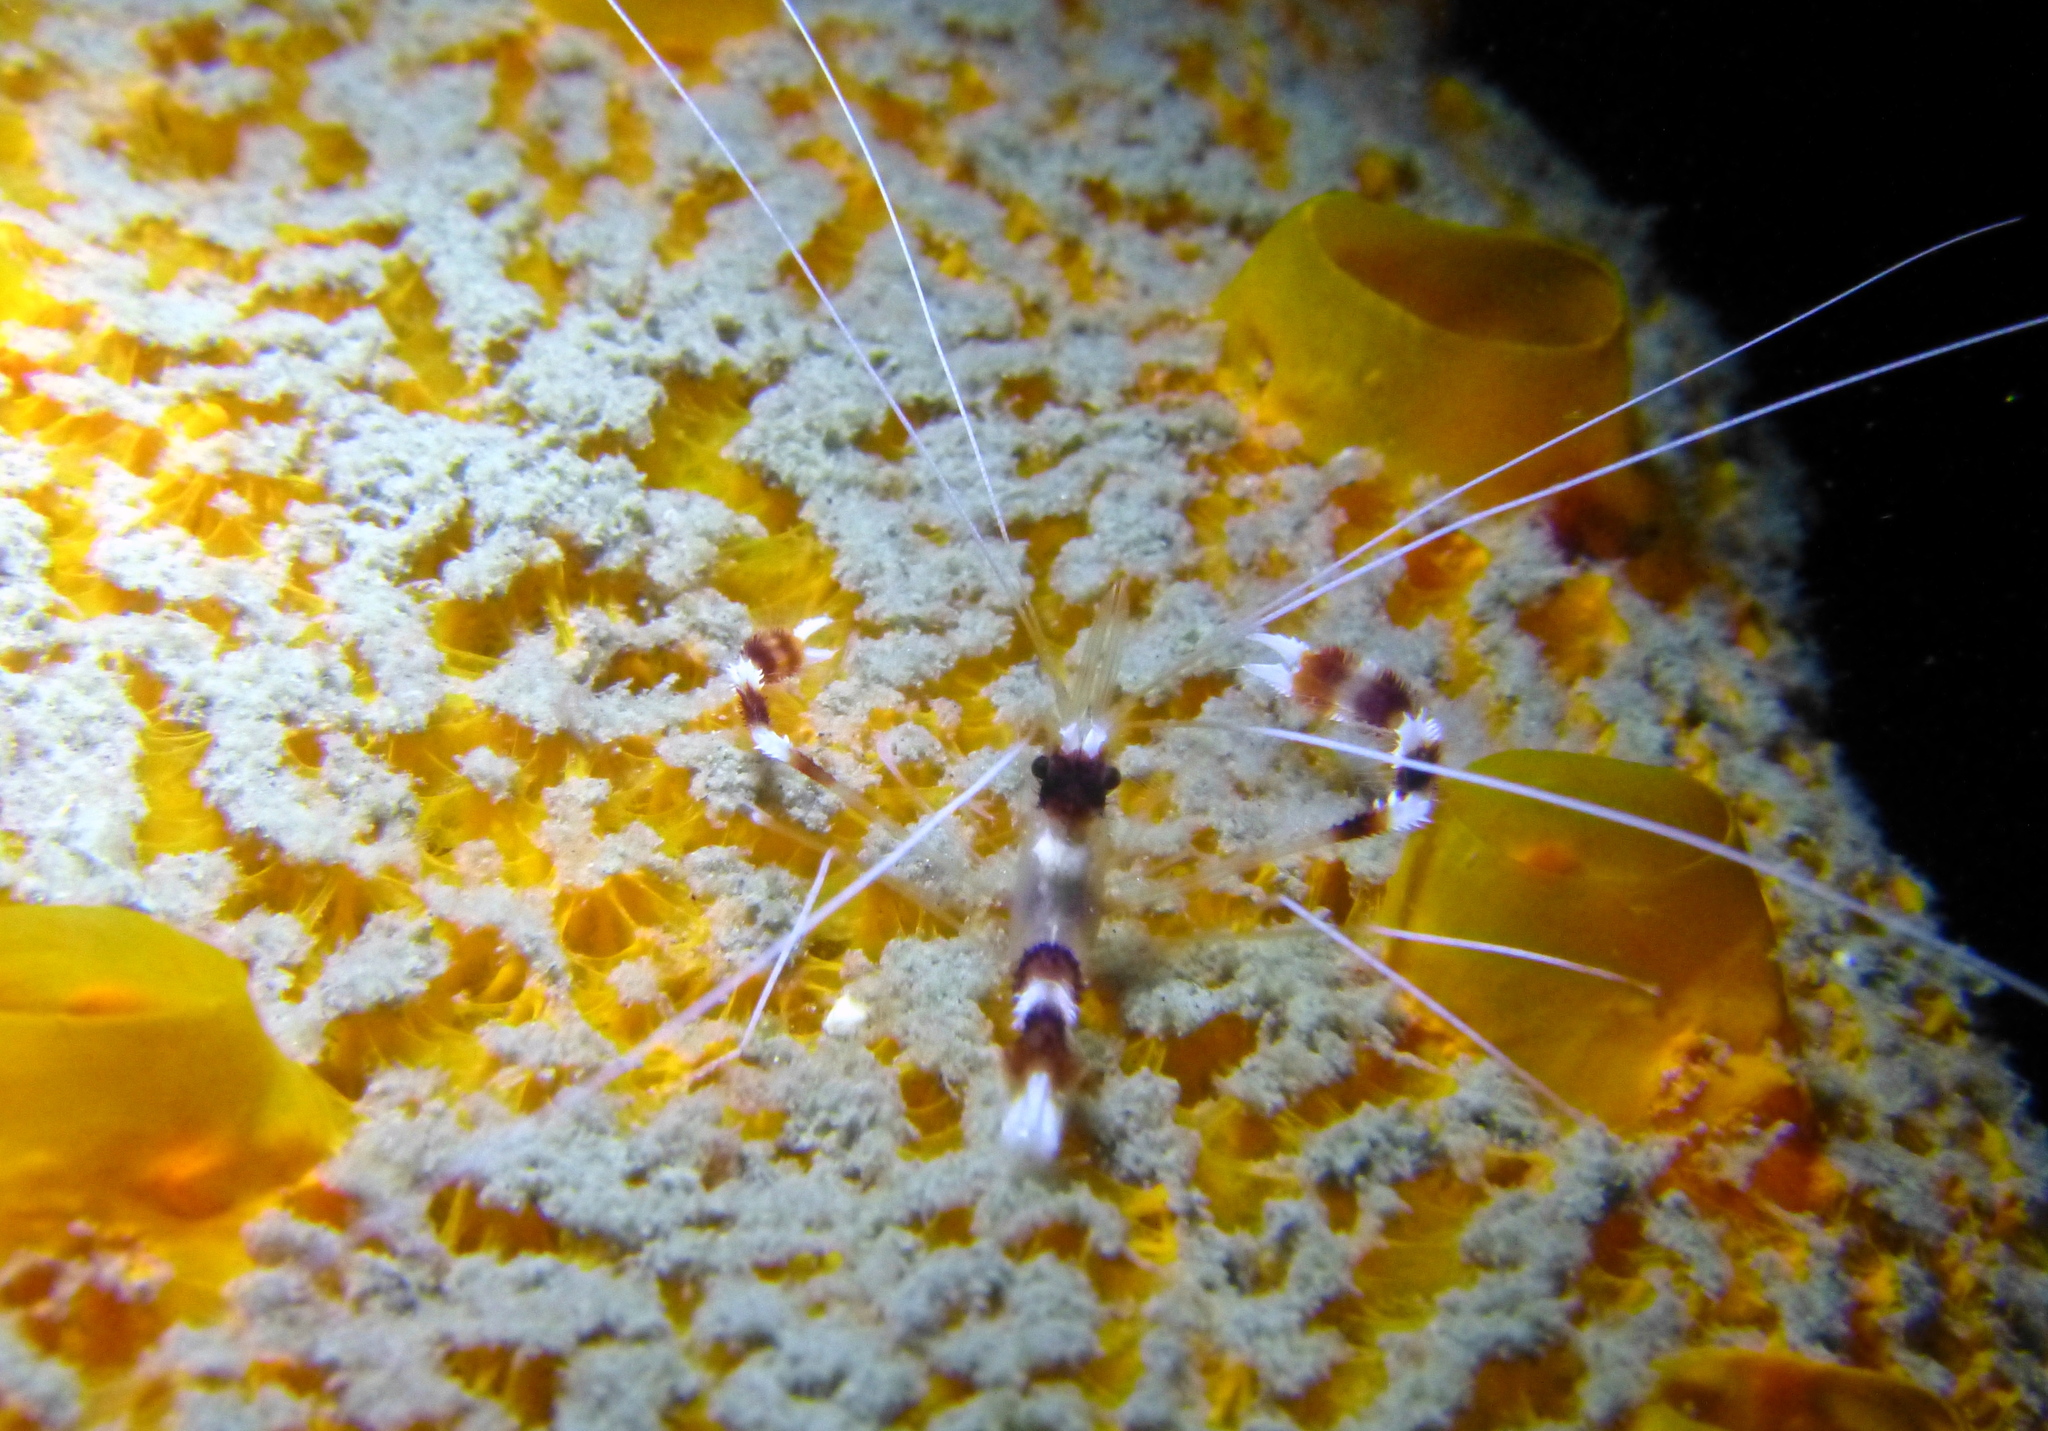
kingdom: Animalia
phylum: Arthropoda
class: Malacostraca
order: Decapoda
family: Stenopodidae
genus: Stenopus
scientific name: Stenopus hispidus
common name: Banded coral shrimp
